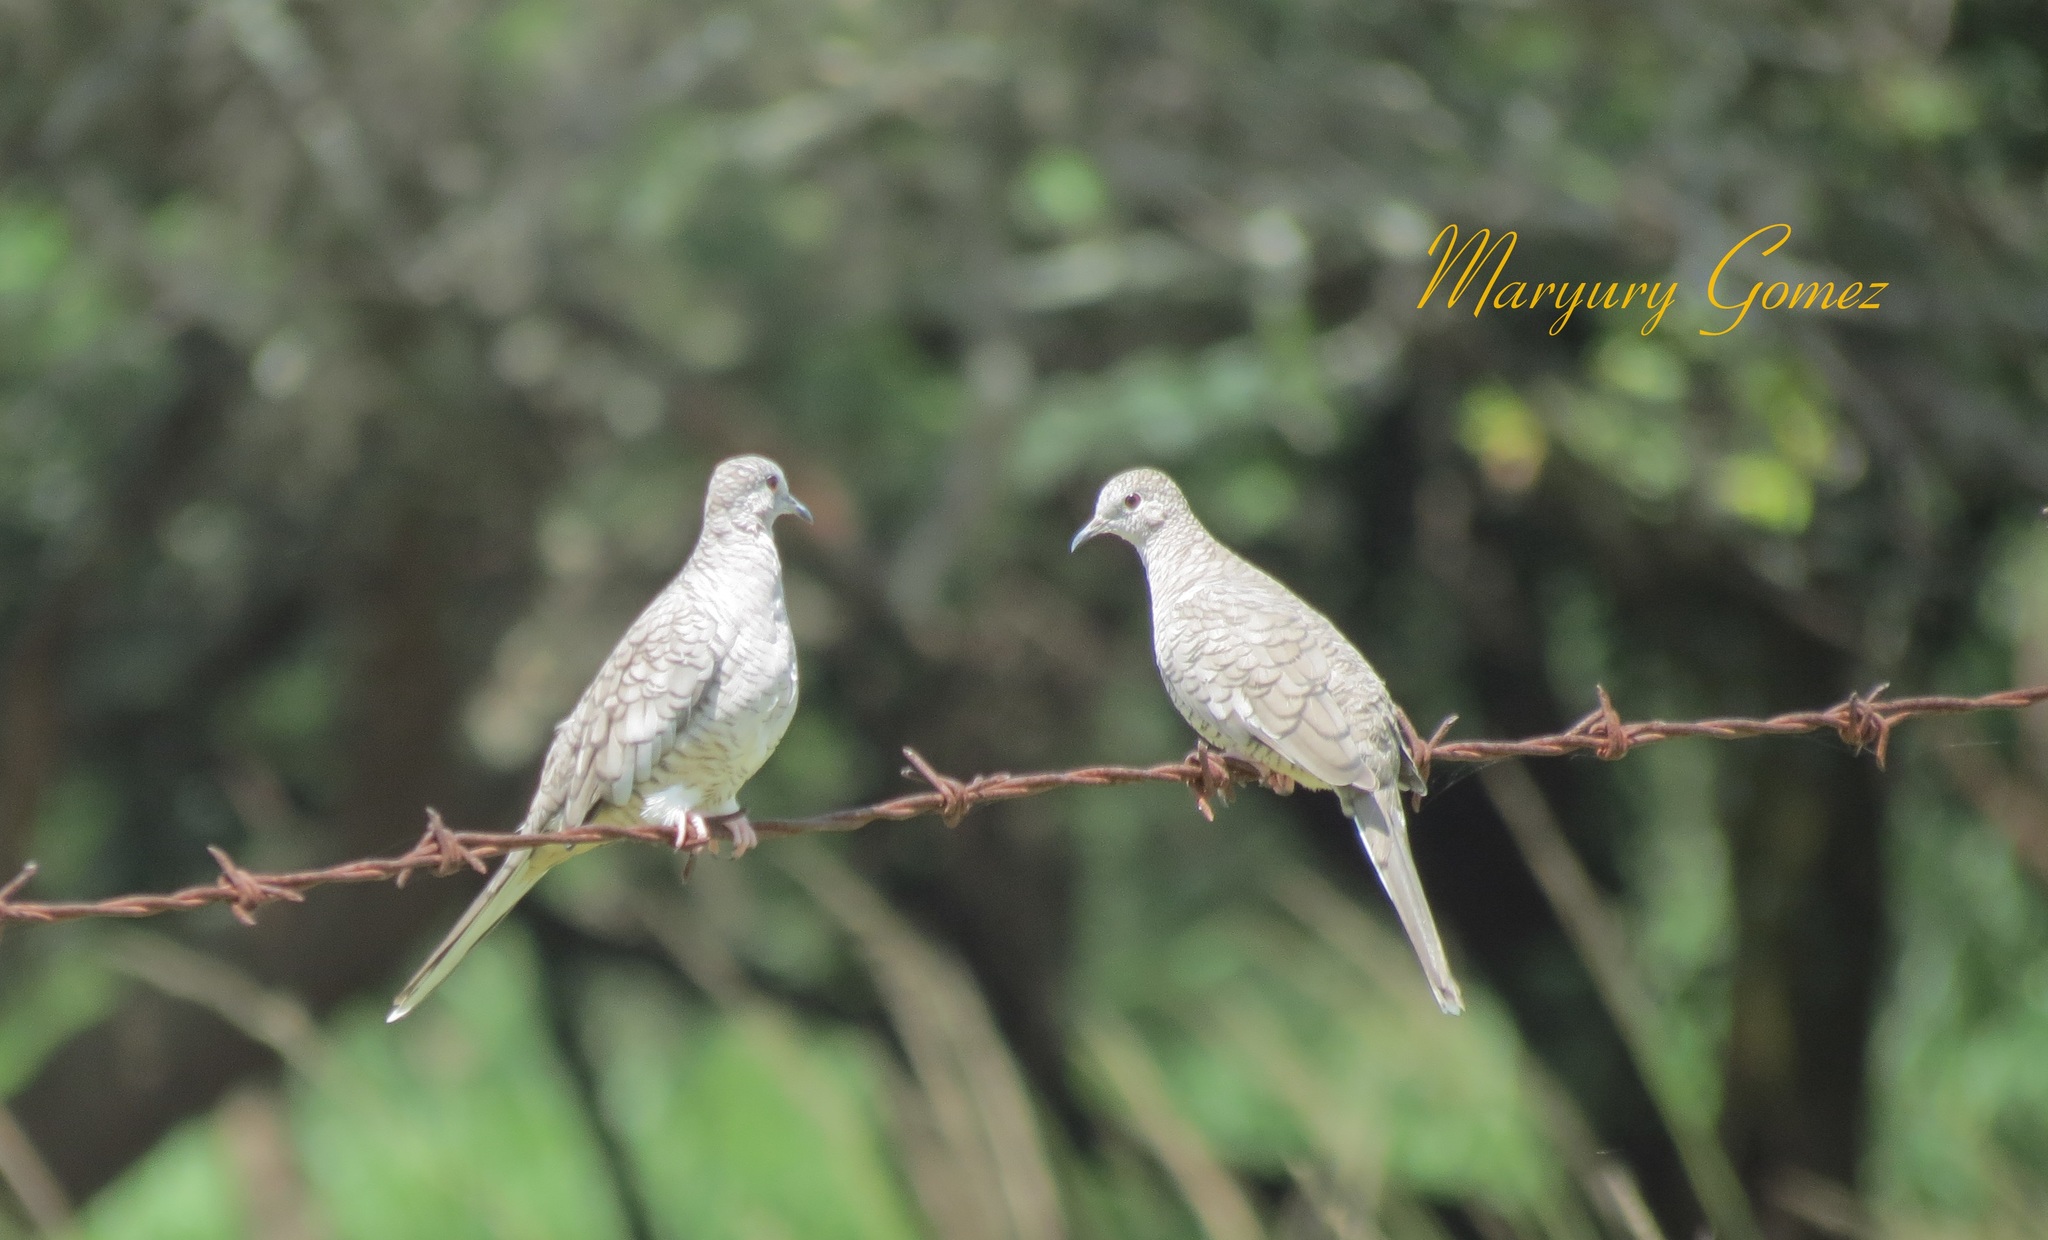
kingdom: Animalia
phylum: Chordata
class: Aves
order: Columbiformes
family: Columbidae
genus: Columbina
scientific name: Columbina inca
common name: Inca dove
